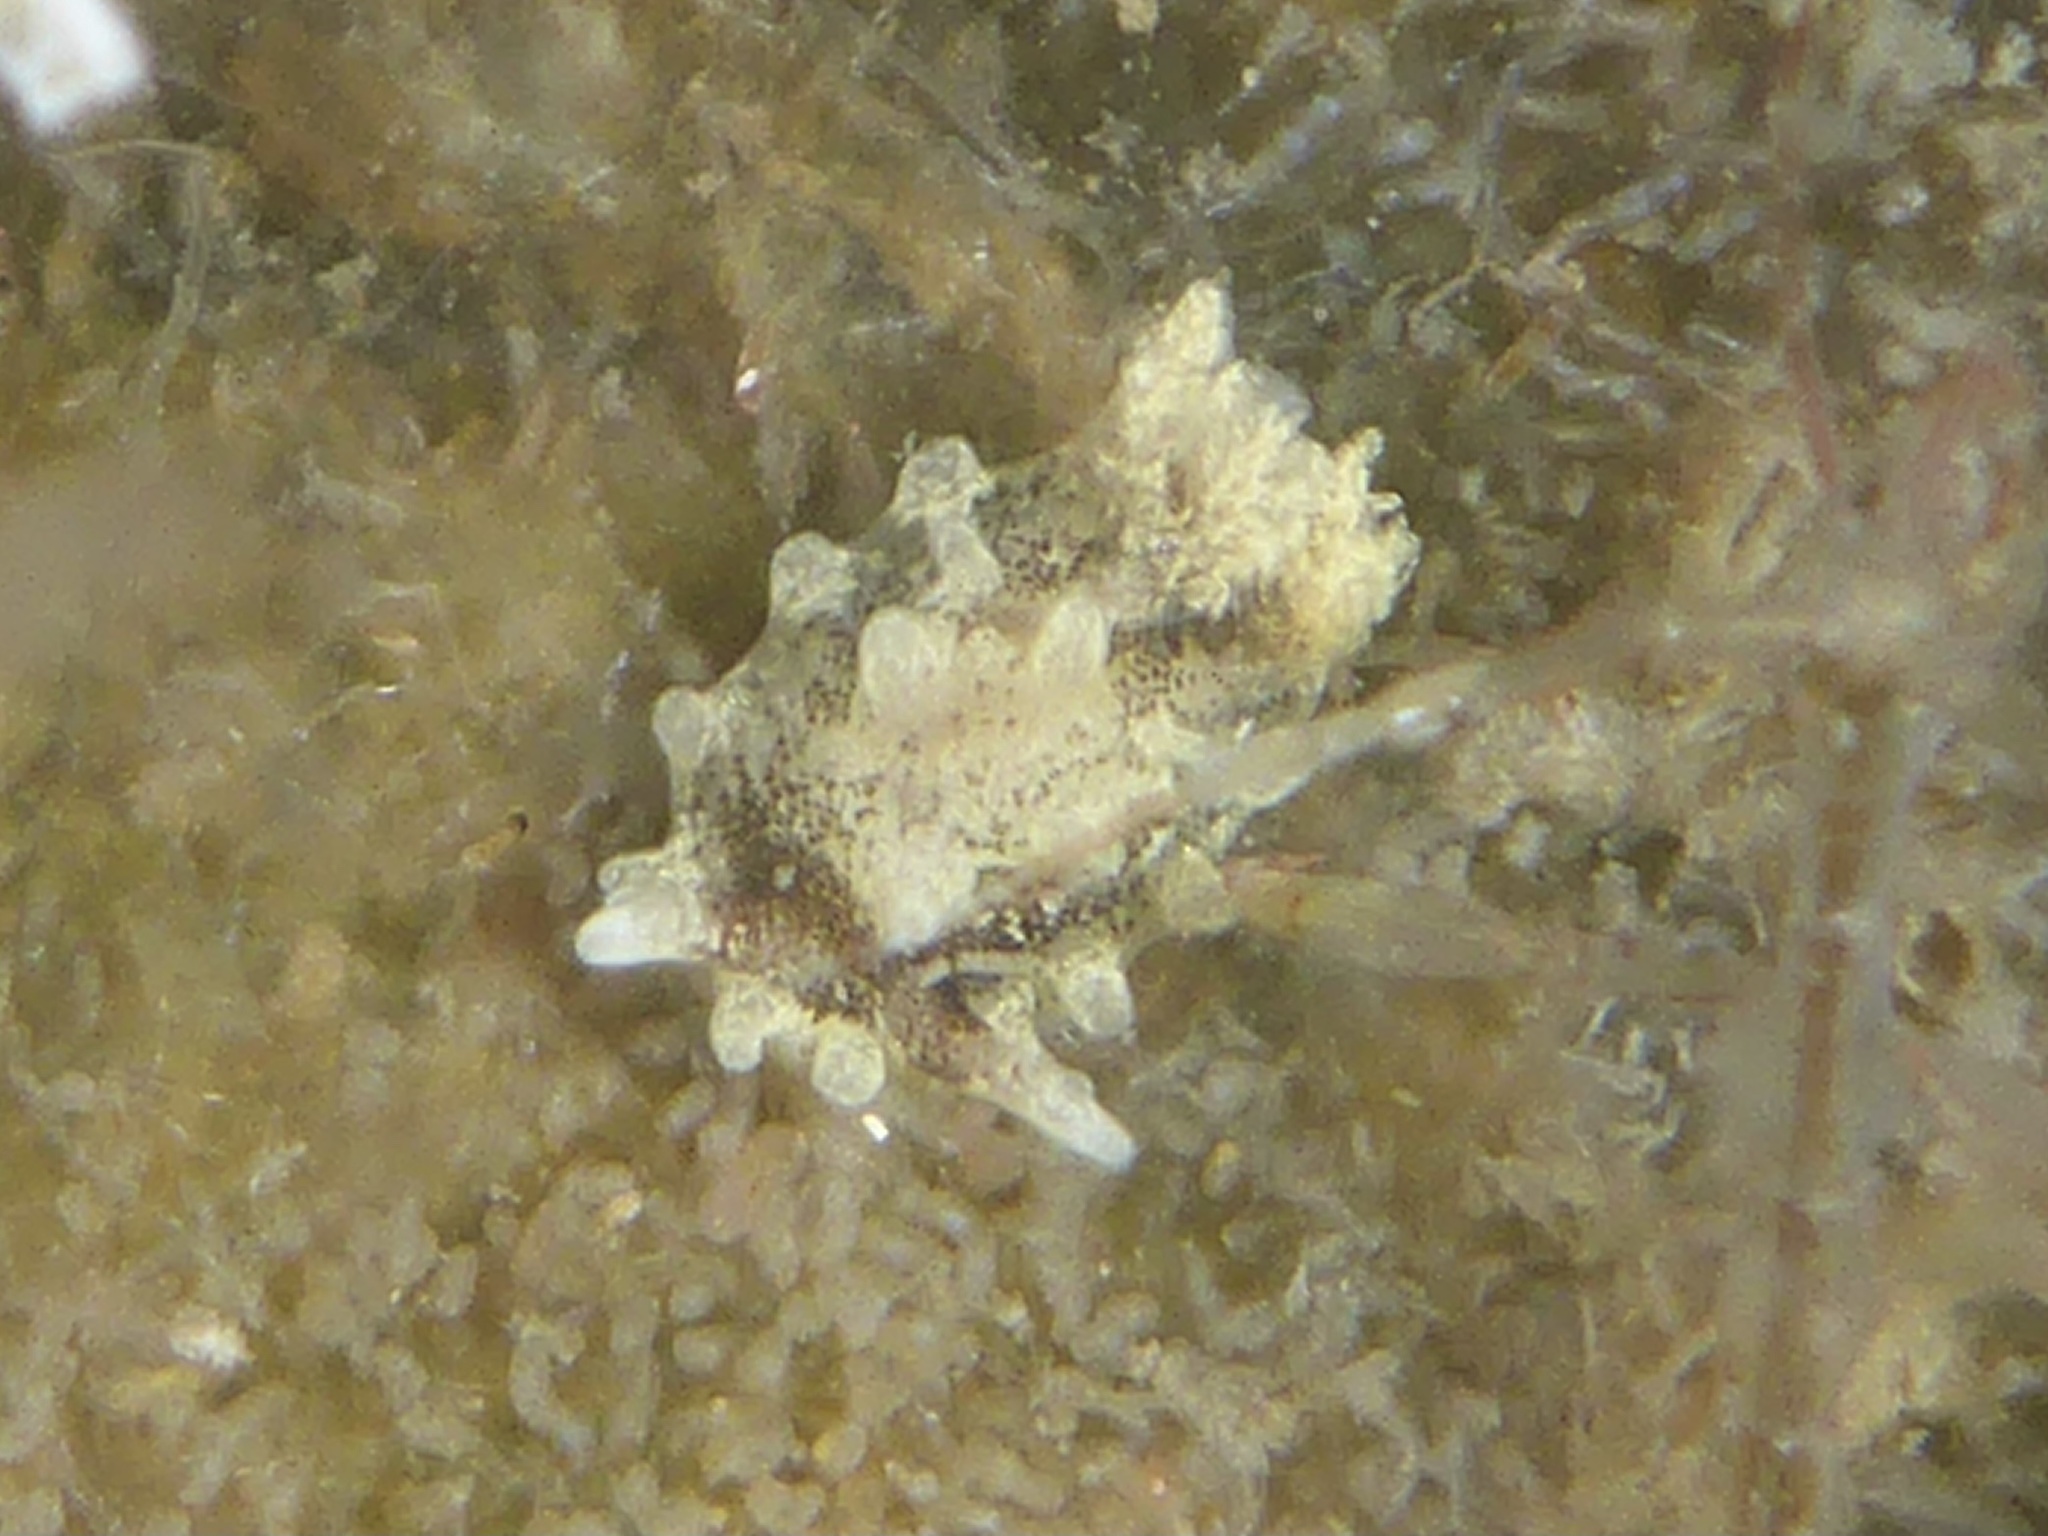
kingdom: Animalia
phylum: Mollusca
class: Gastropoda
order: Nudibranchia
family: Goniodorididae
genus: Okenia
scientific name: Okenia
